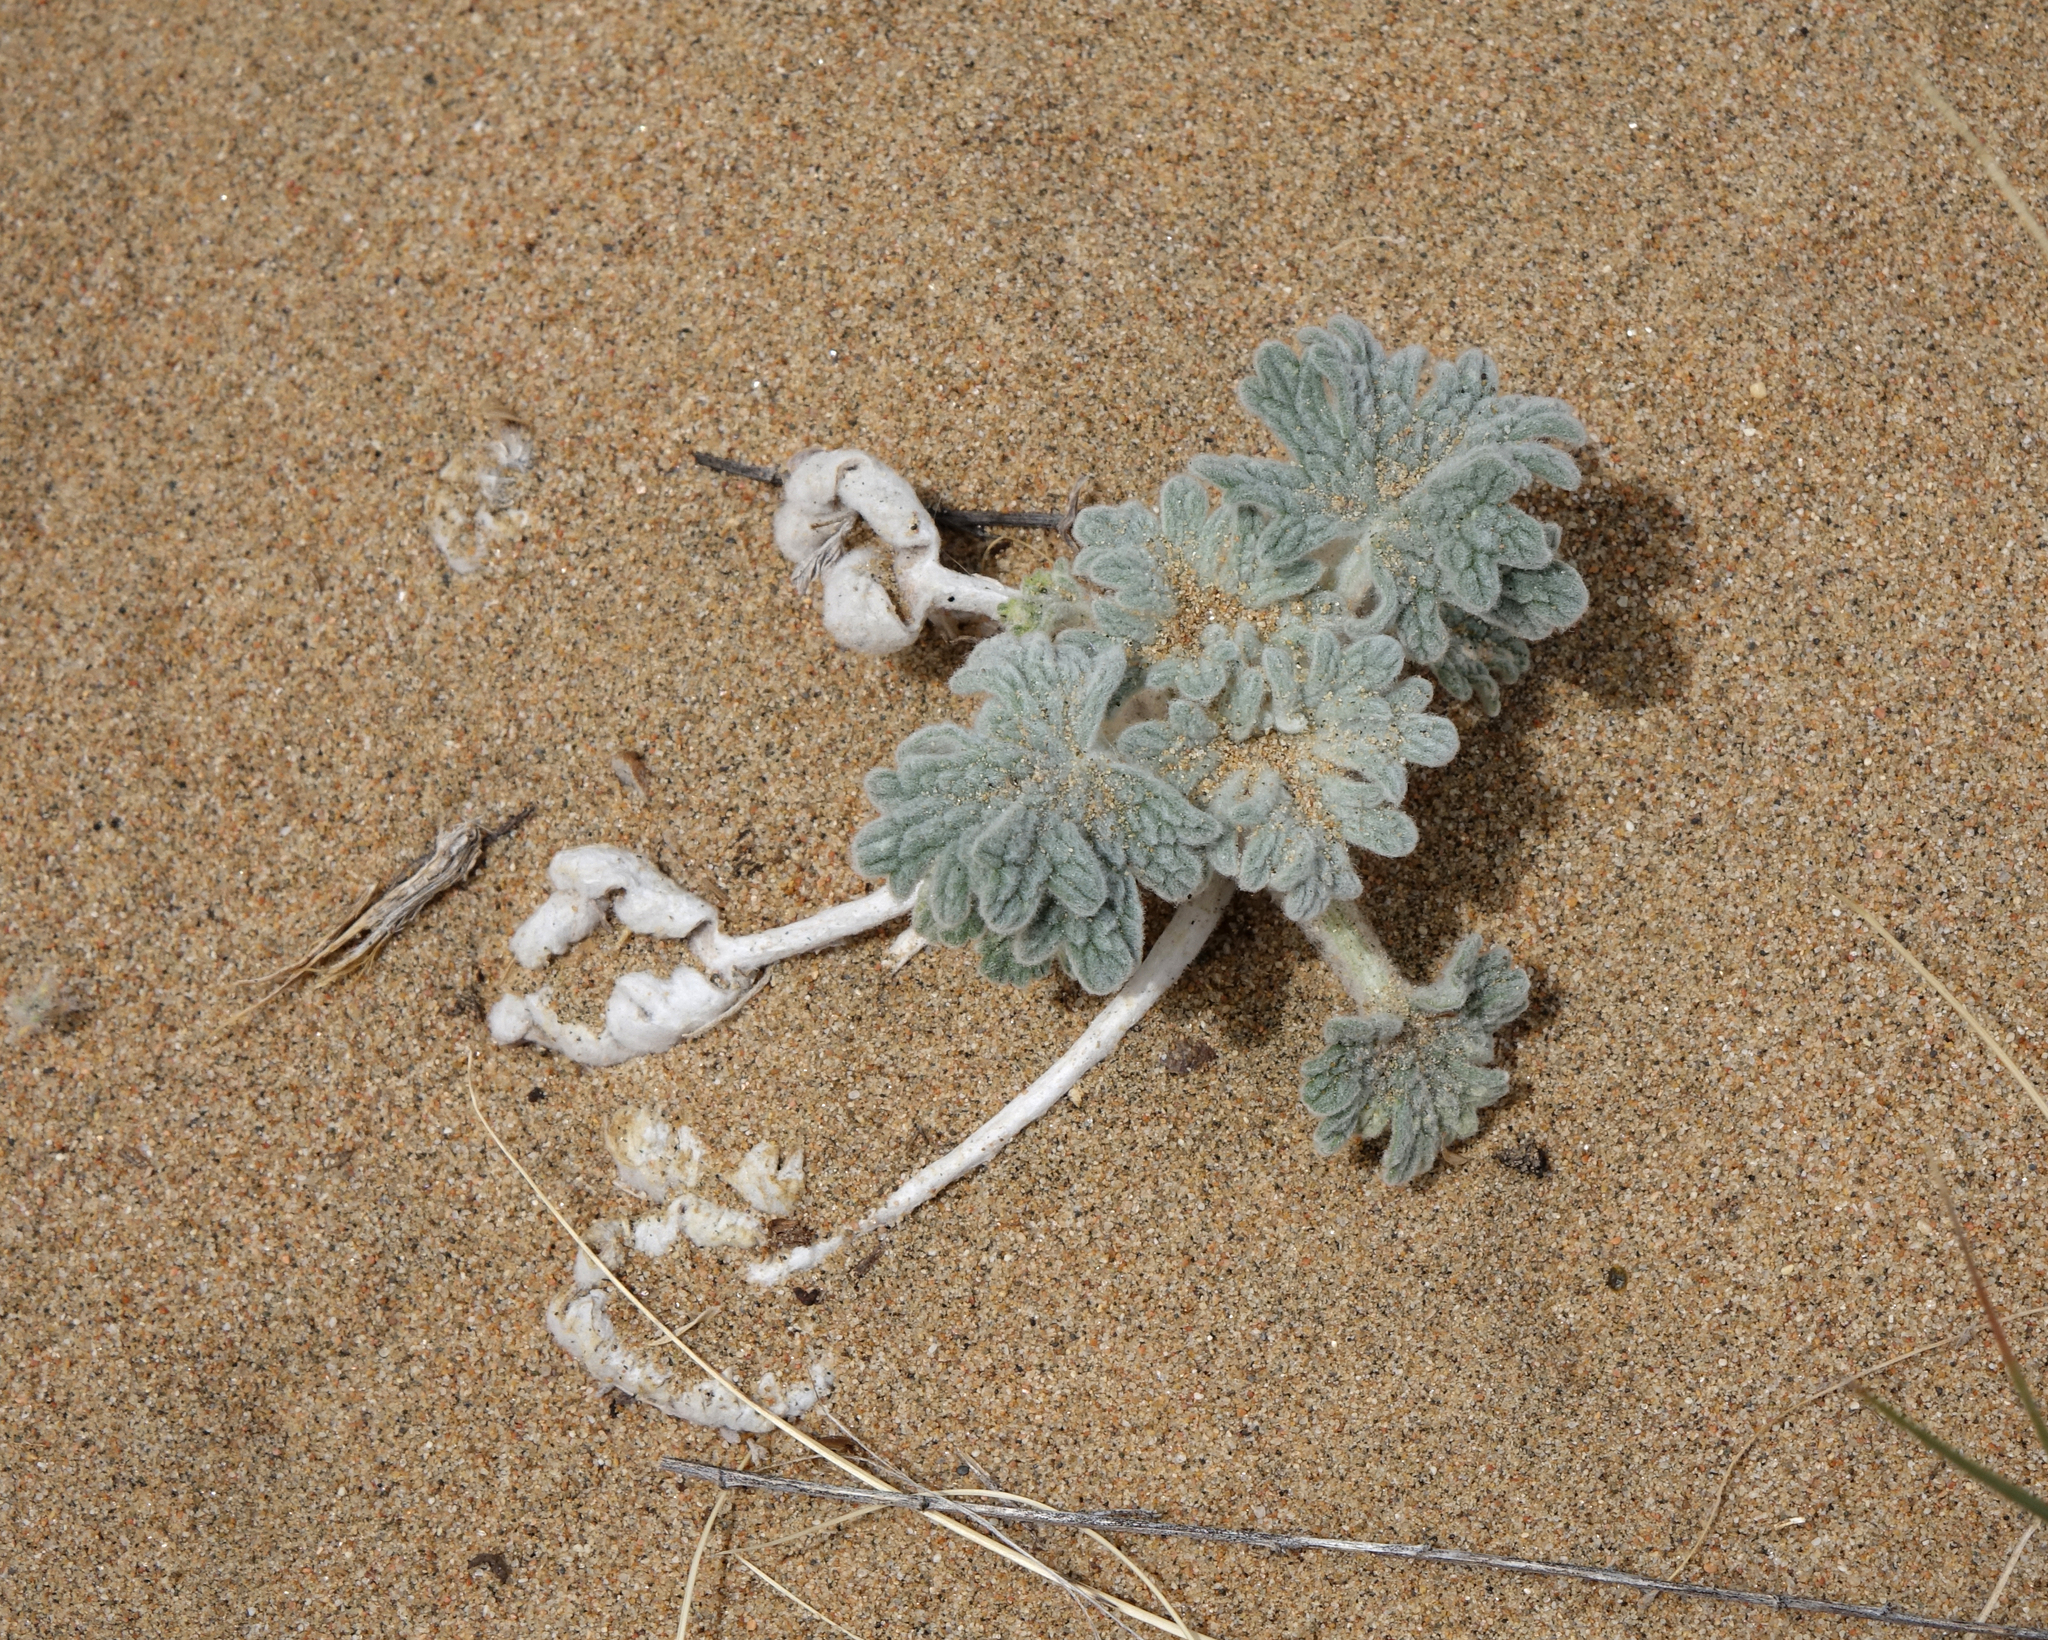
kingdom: Plantae
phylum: Tracheophyta
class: Magnoliopsida
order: Lamiales
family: Lamiaceae
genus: Panzerina
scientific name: Panzerina lanata
